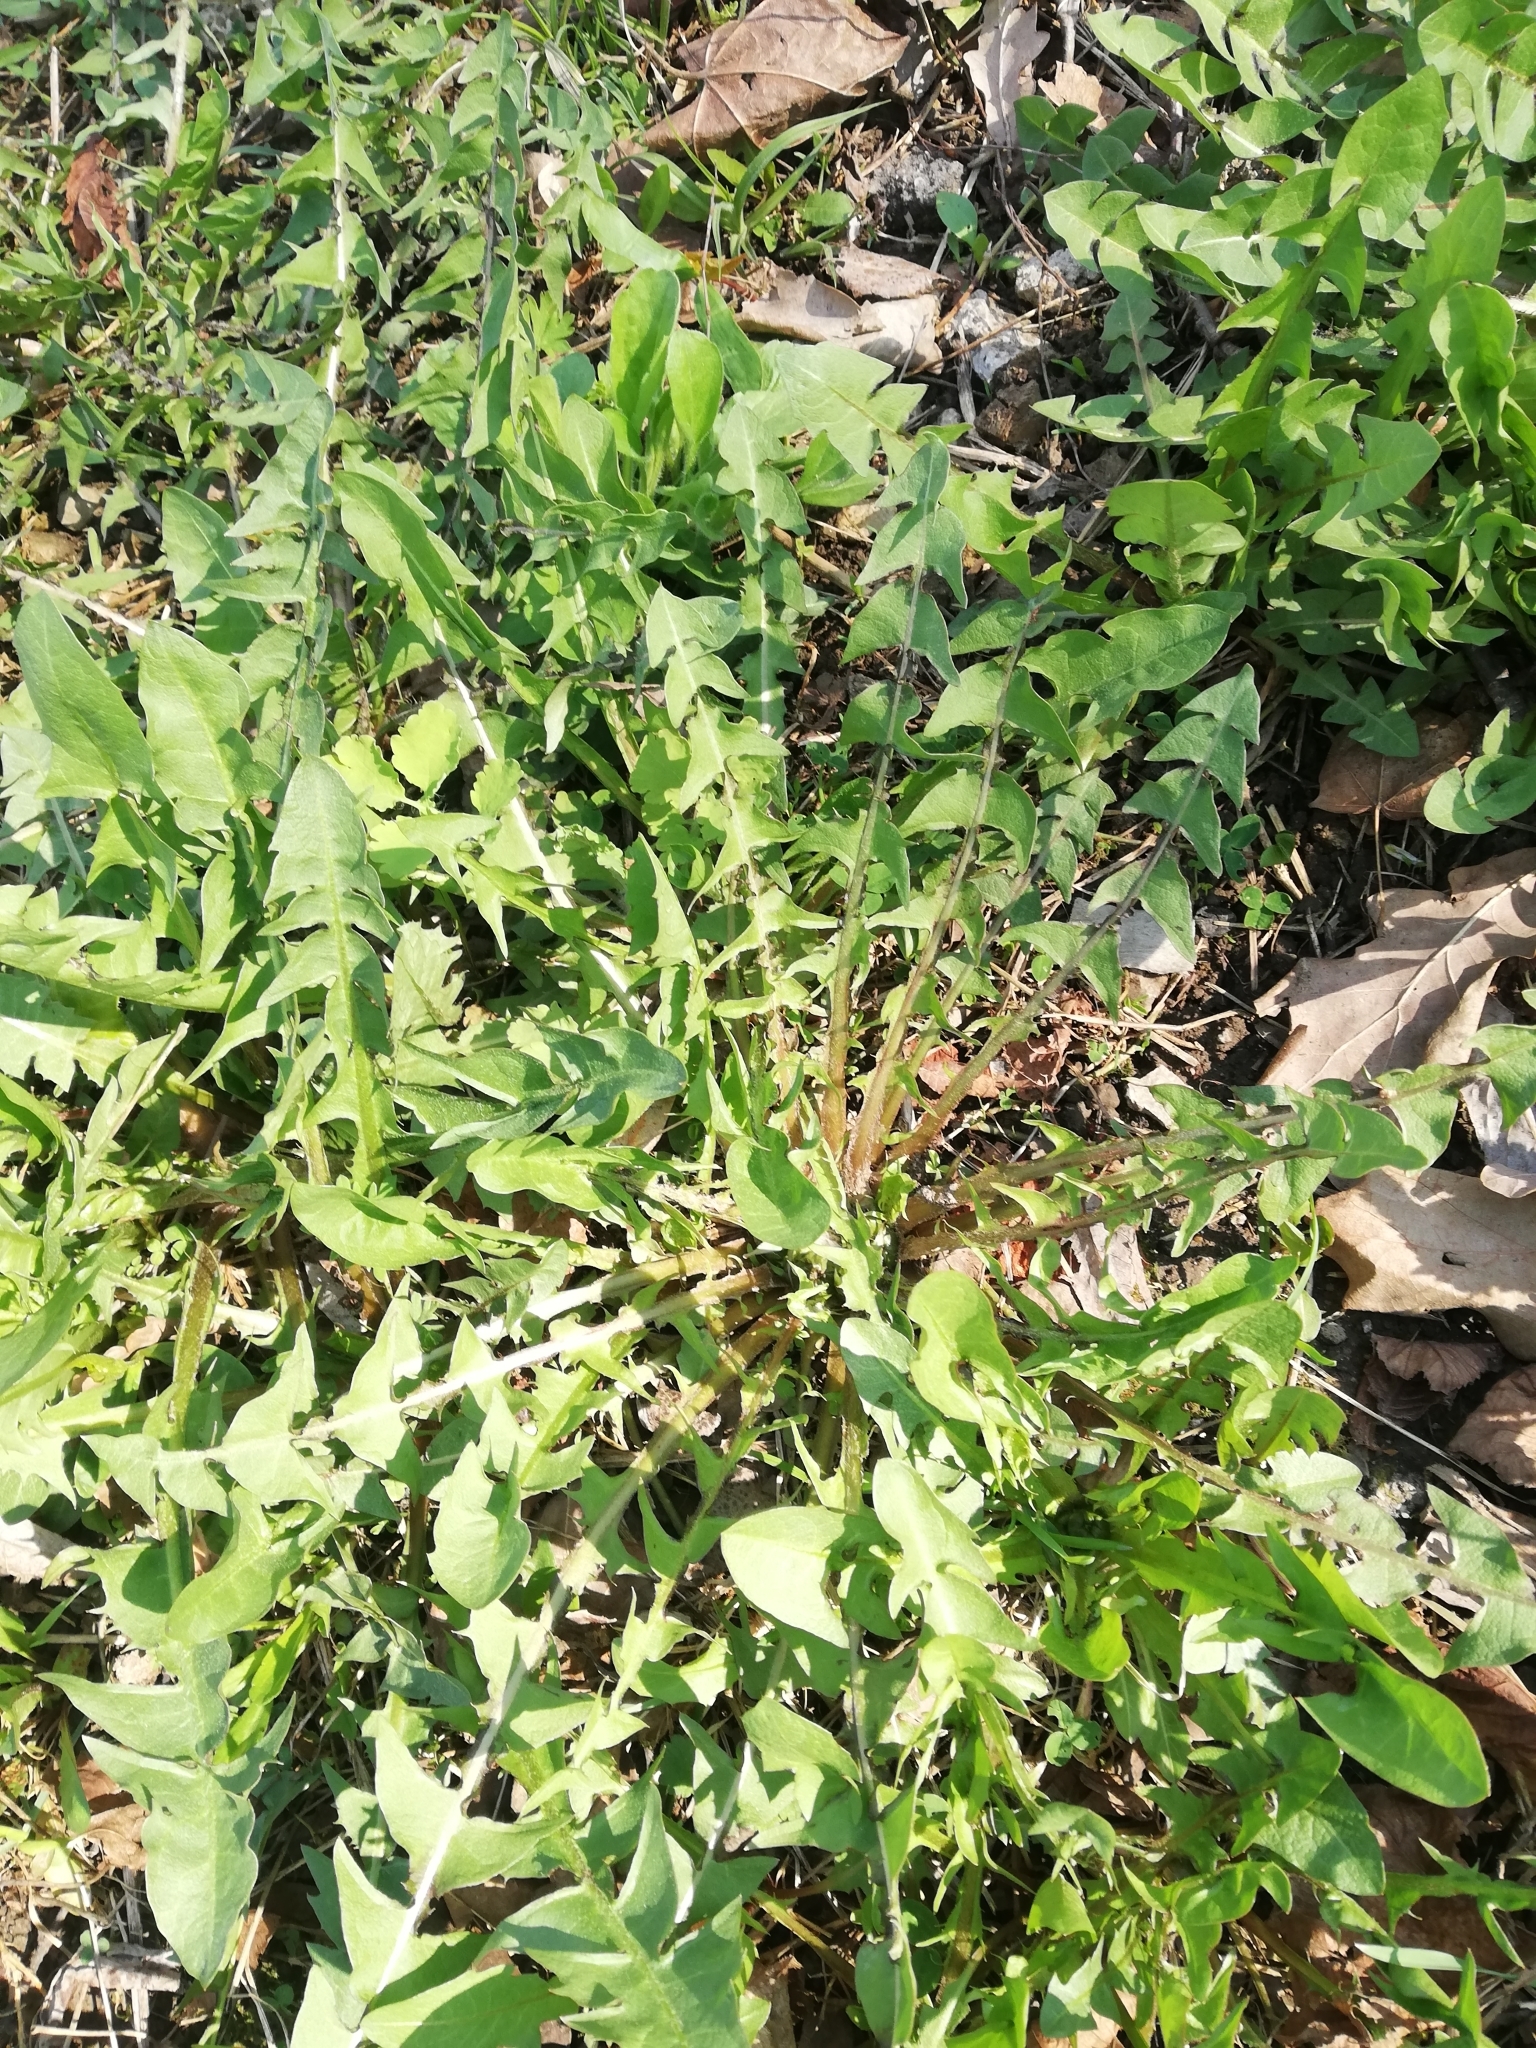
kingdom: Plantae
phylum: Tracheophyta
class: Magnoliopsida
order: Asterales
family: Asteraceae
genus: Taraxacum
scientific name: Taraxacum officinale
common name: Common dandelion
